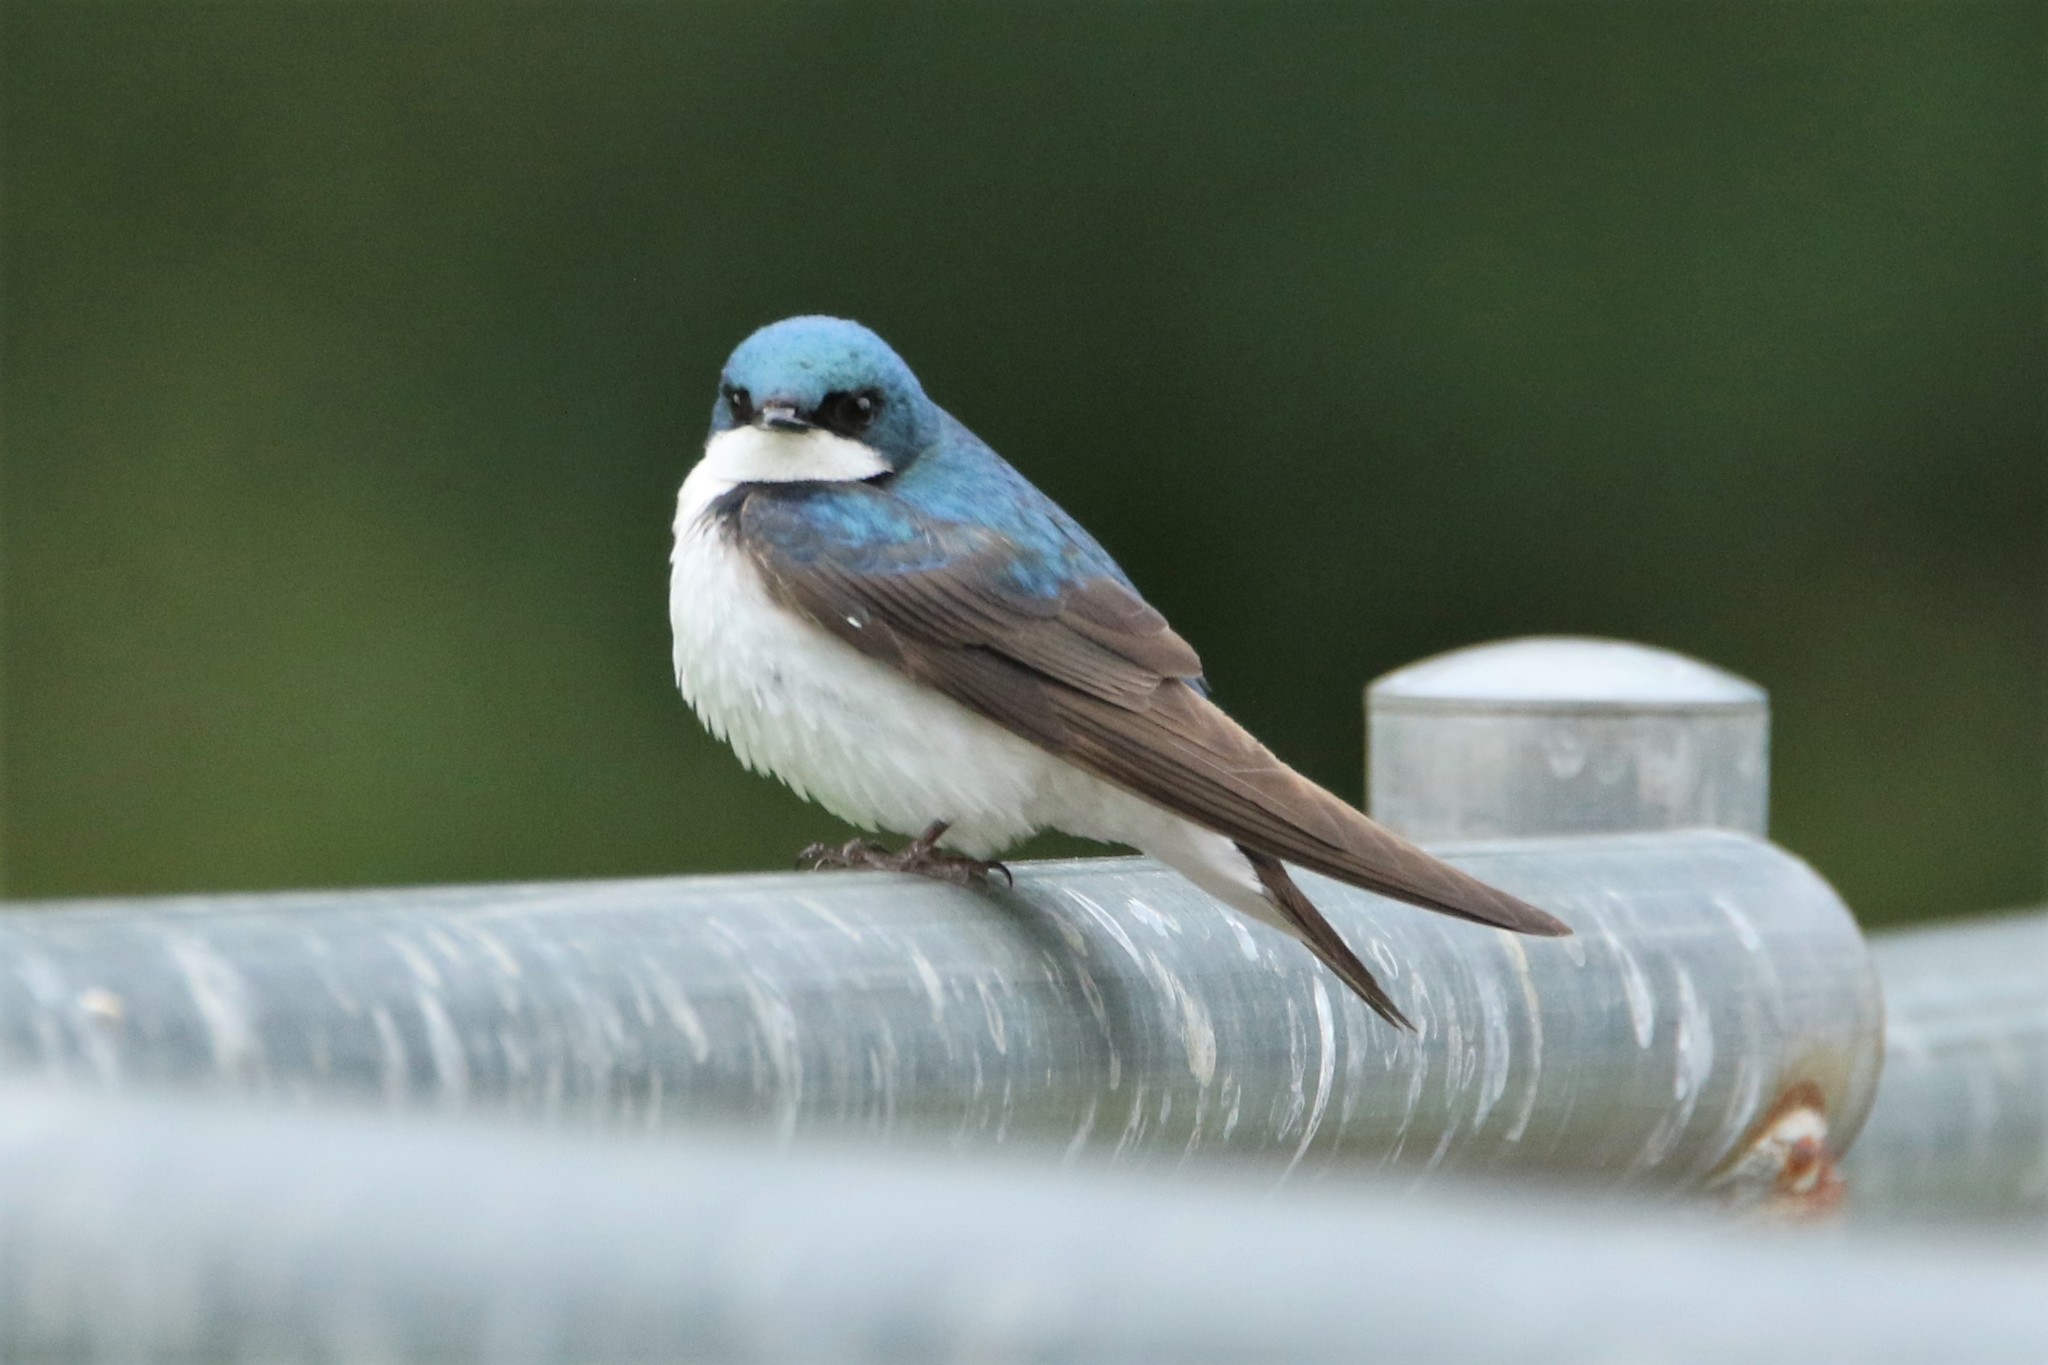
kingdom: Animalia
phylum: Chordata
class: Aves
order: Passeriformes
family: Hirundinidae
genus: Tachycineta
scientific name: Tachycineta bicolor
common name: Tree swallow
